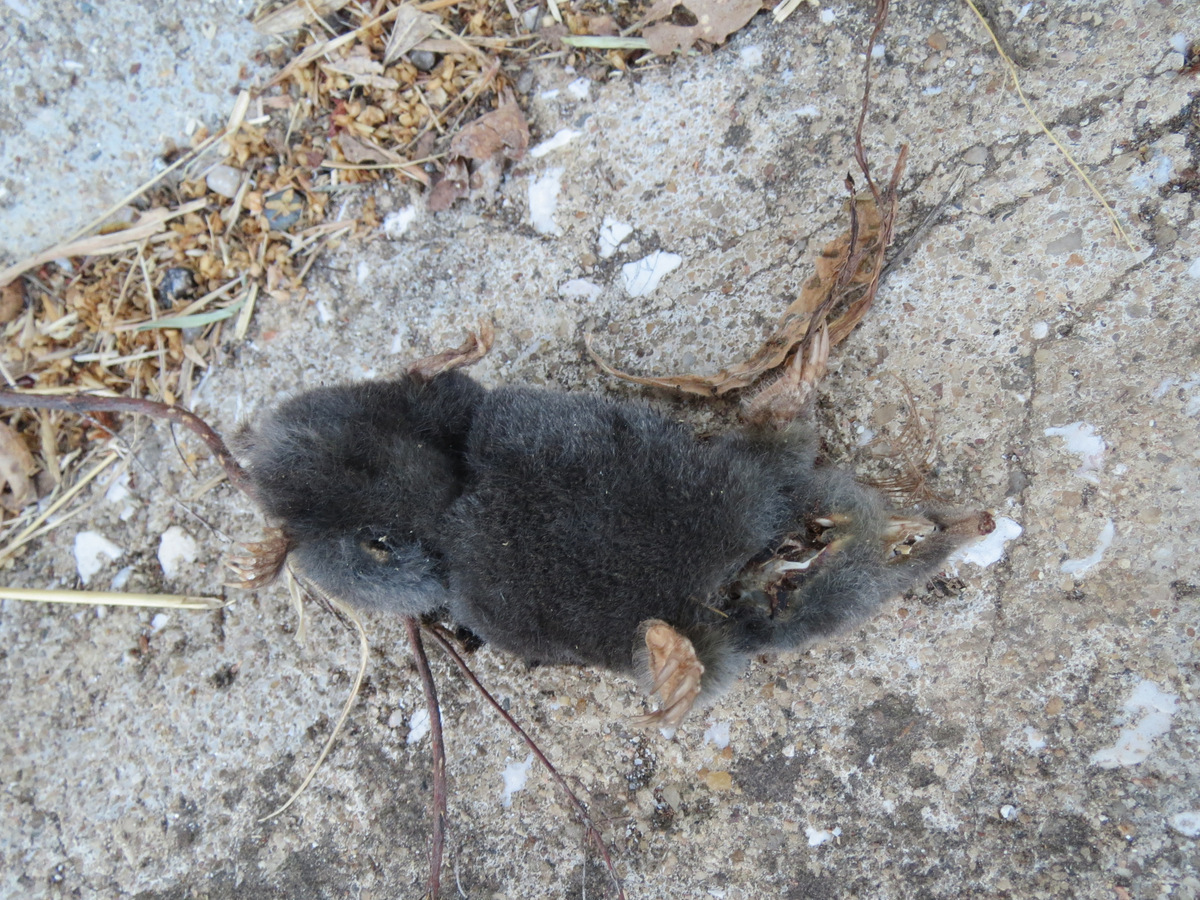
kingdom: Animalia
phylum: Chordata
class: Mammalia
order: Soricomorpha
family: Talpidae
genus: Talpa
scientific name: Talpa occidentalis
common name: Iberian mole
